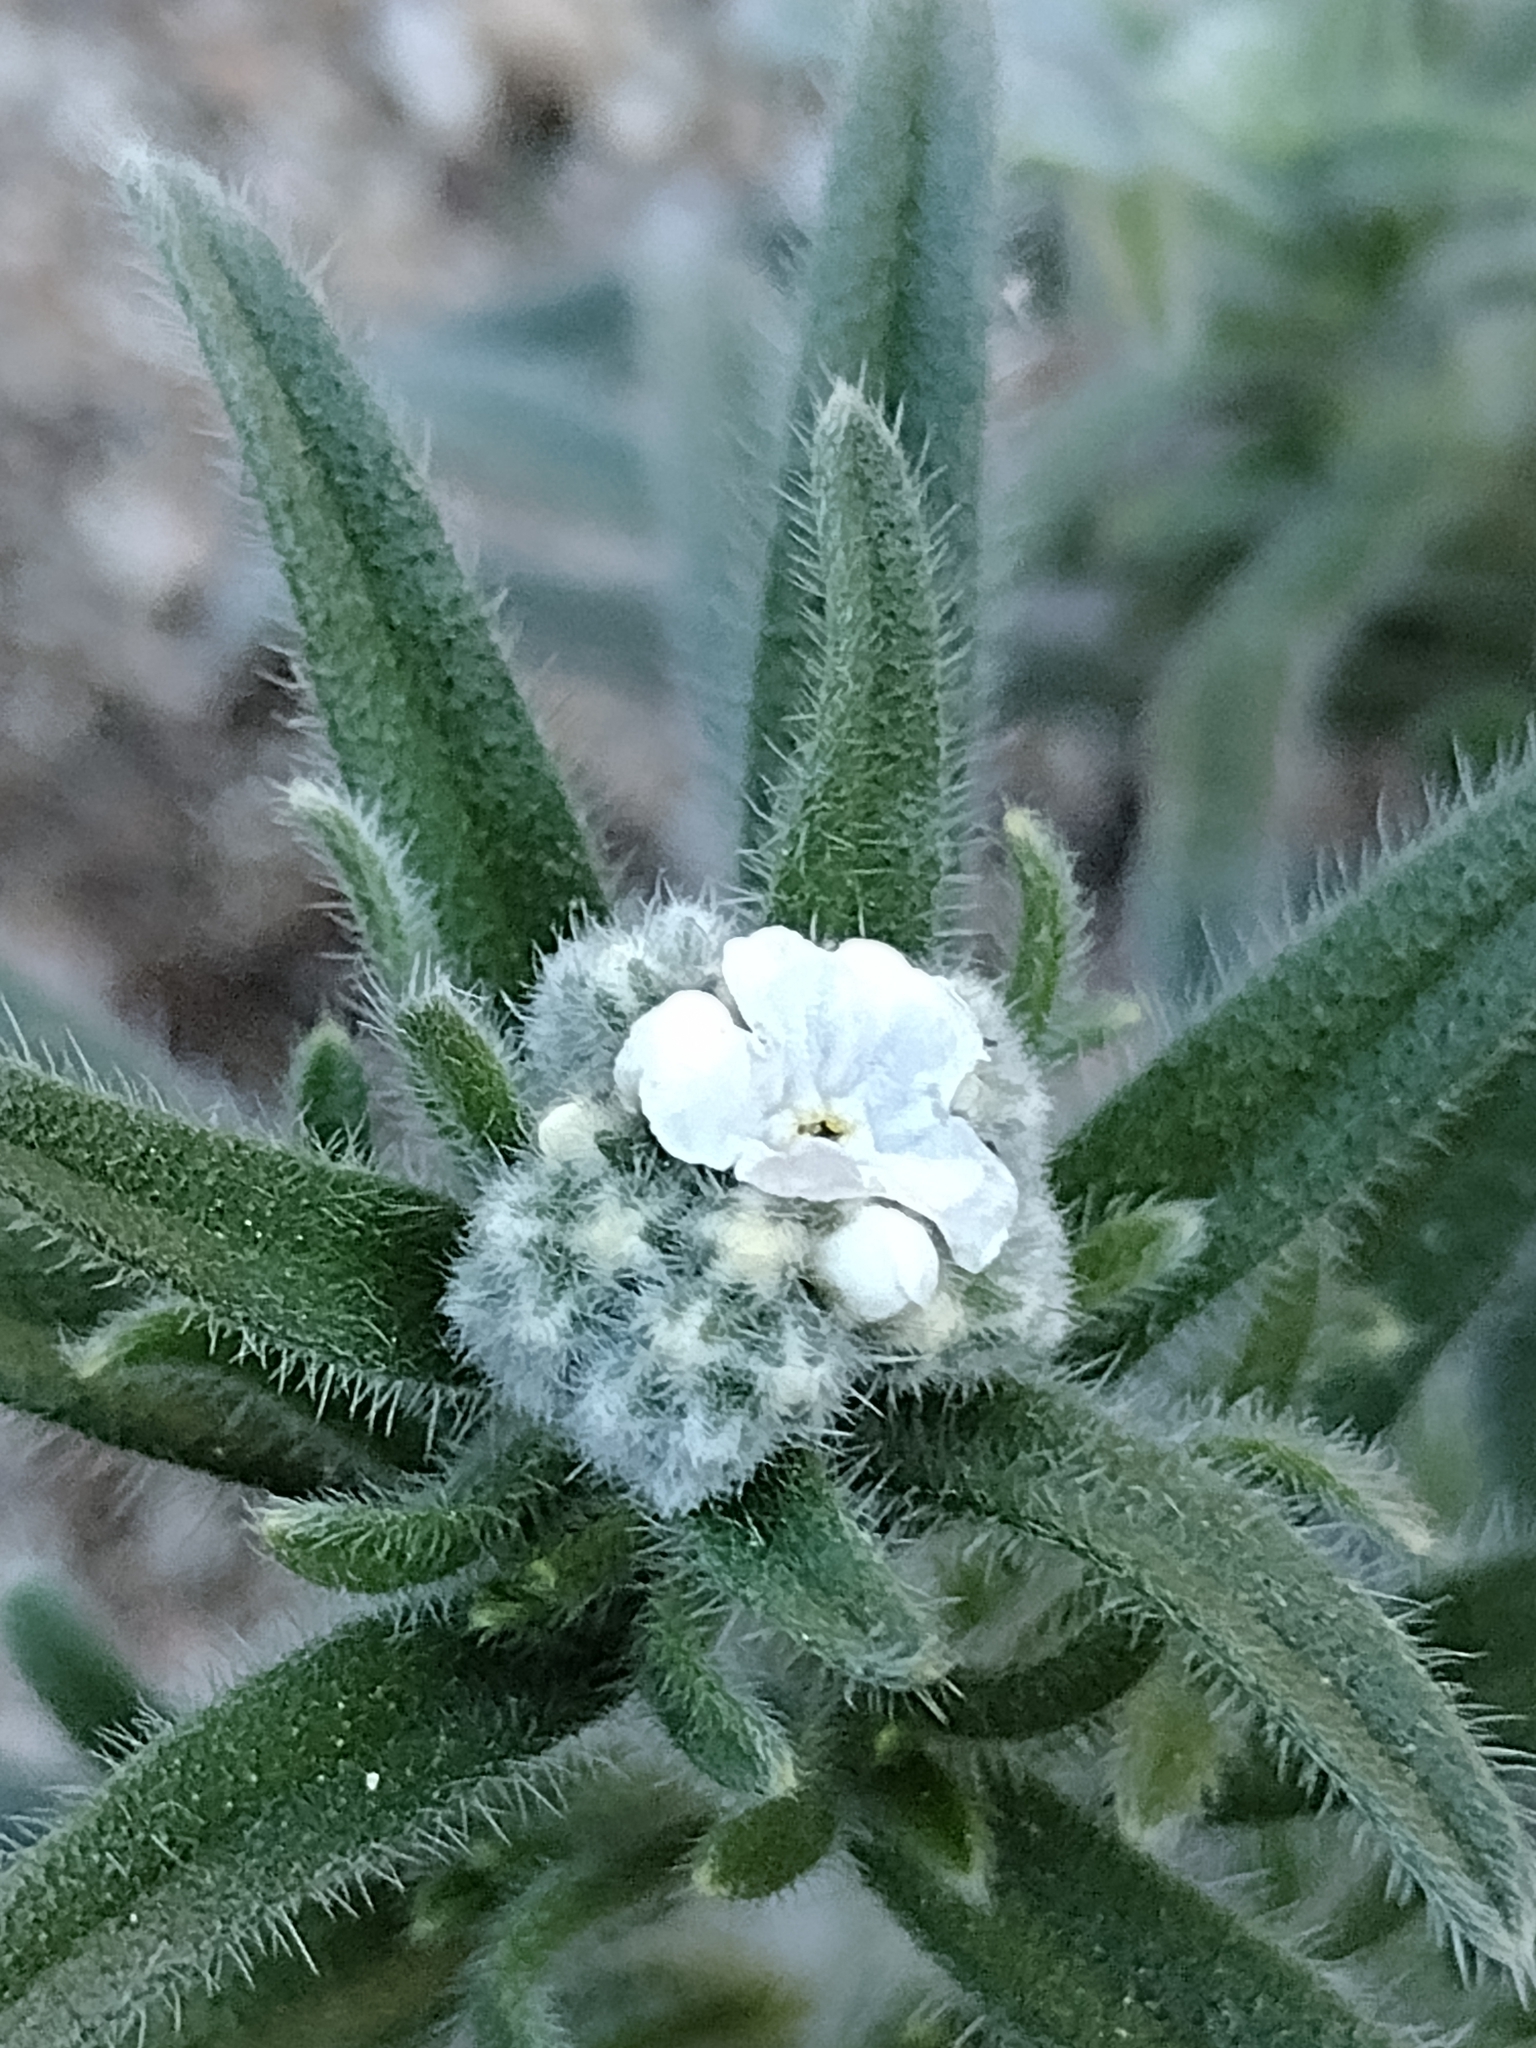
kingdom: Plantae
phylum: Tracheophyta
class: Magnoliopsida
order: Boraginales
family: Boraginaceae
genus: Cryptantha
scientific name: Cryptantha muricata
